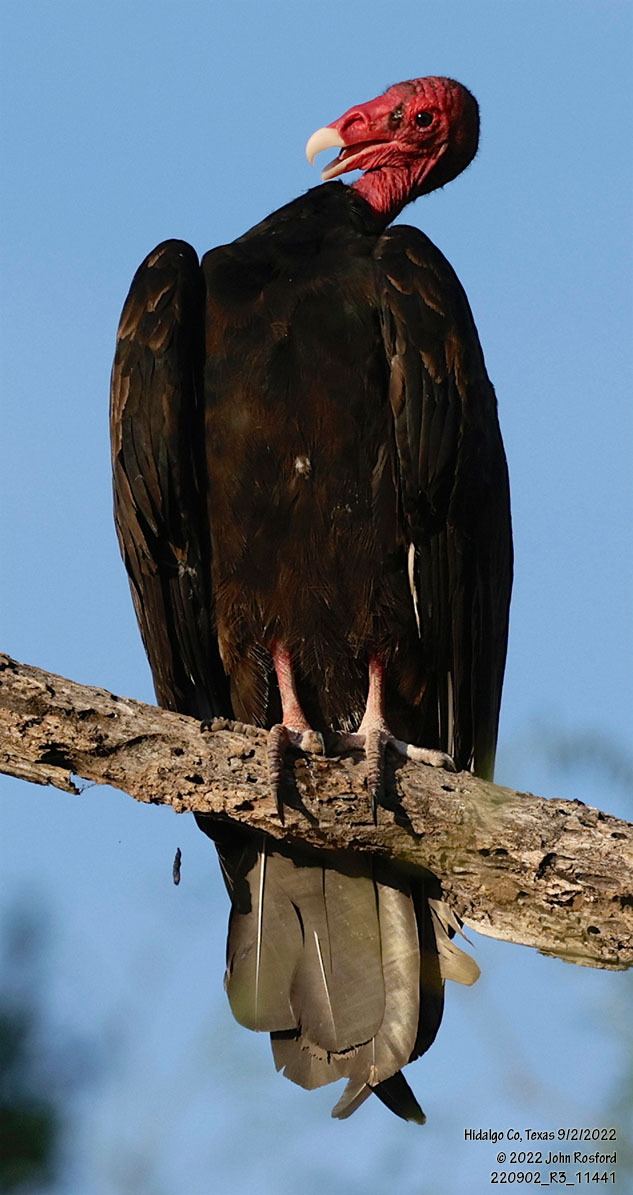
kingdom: Animalia
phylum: Chordata
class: Aves
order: Accipitriformes
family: Cathartidae
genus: Cathartes
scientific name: Cathartes aura
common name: Turkey vulture
